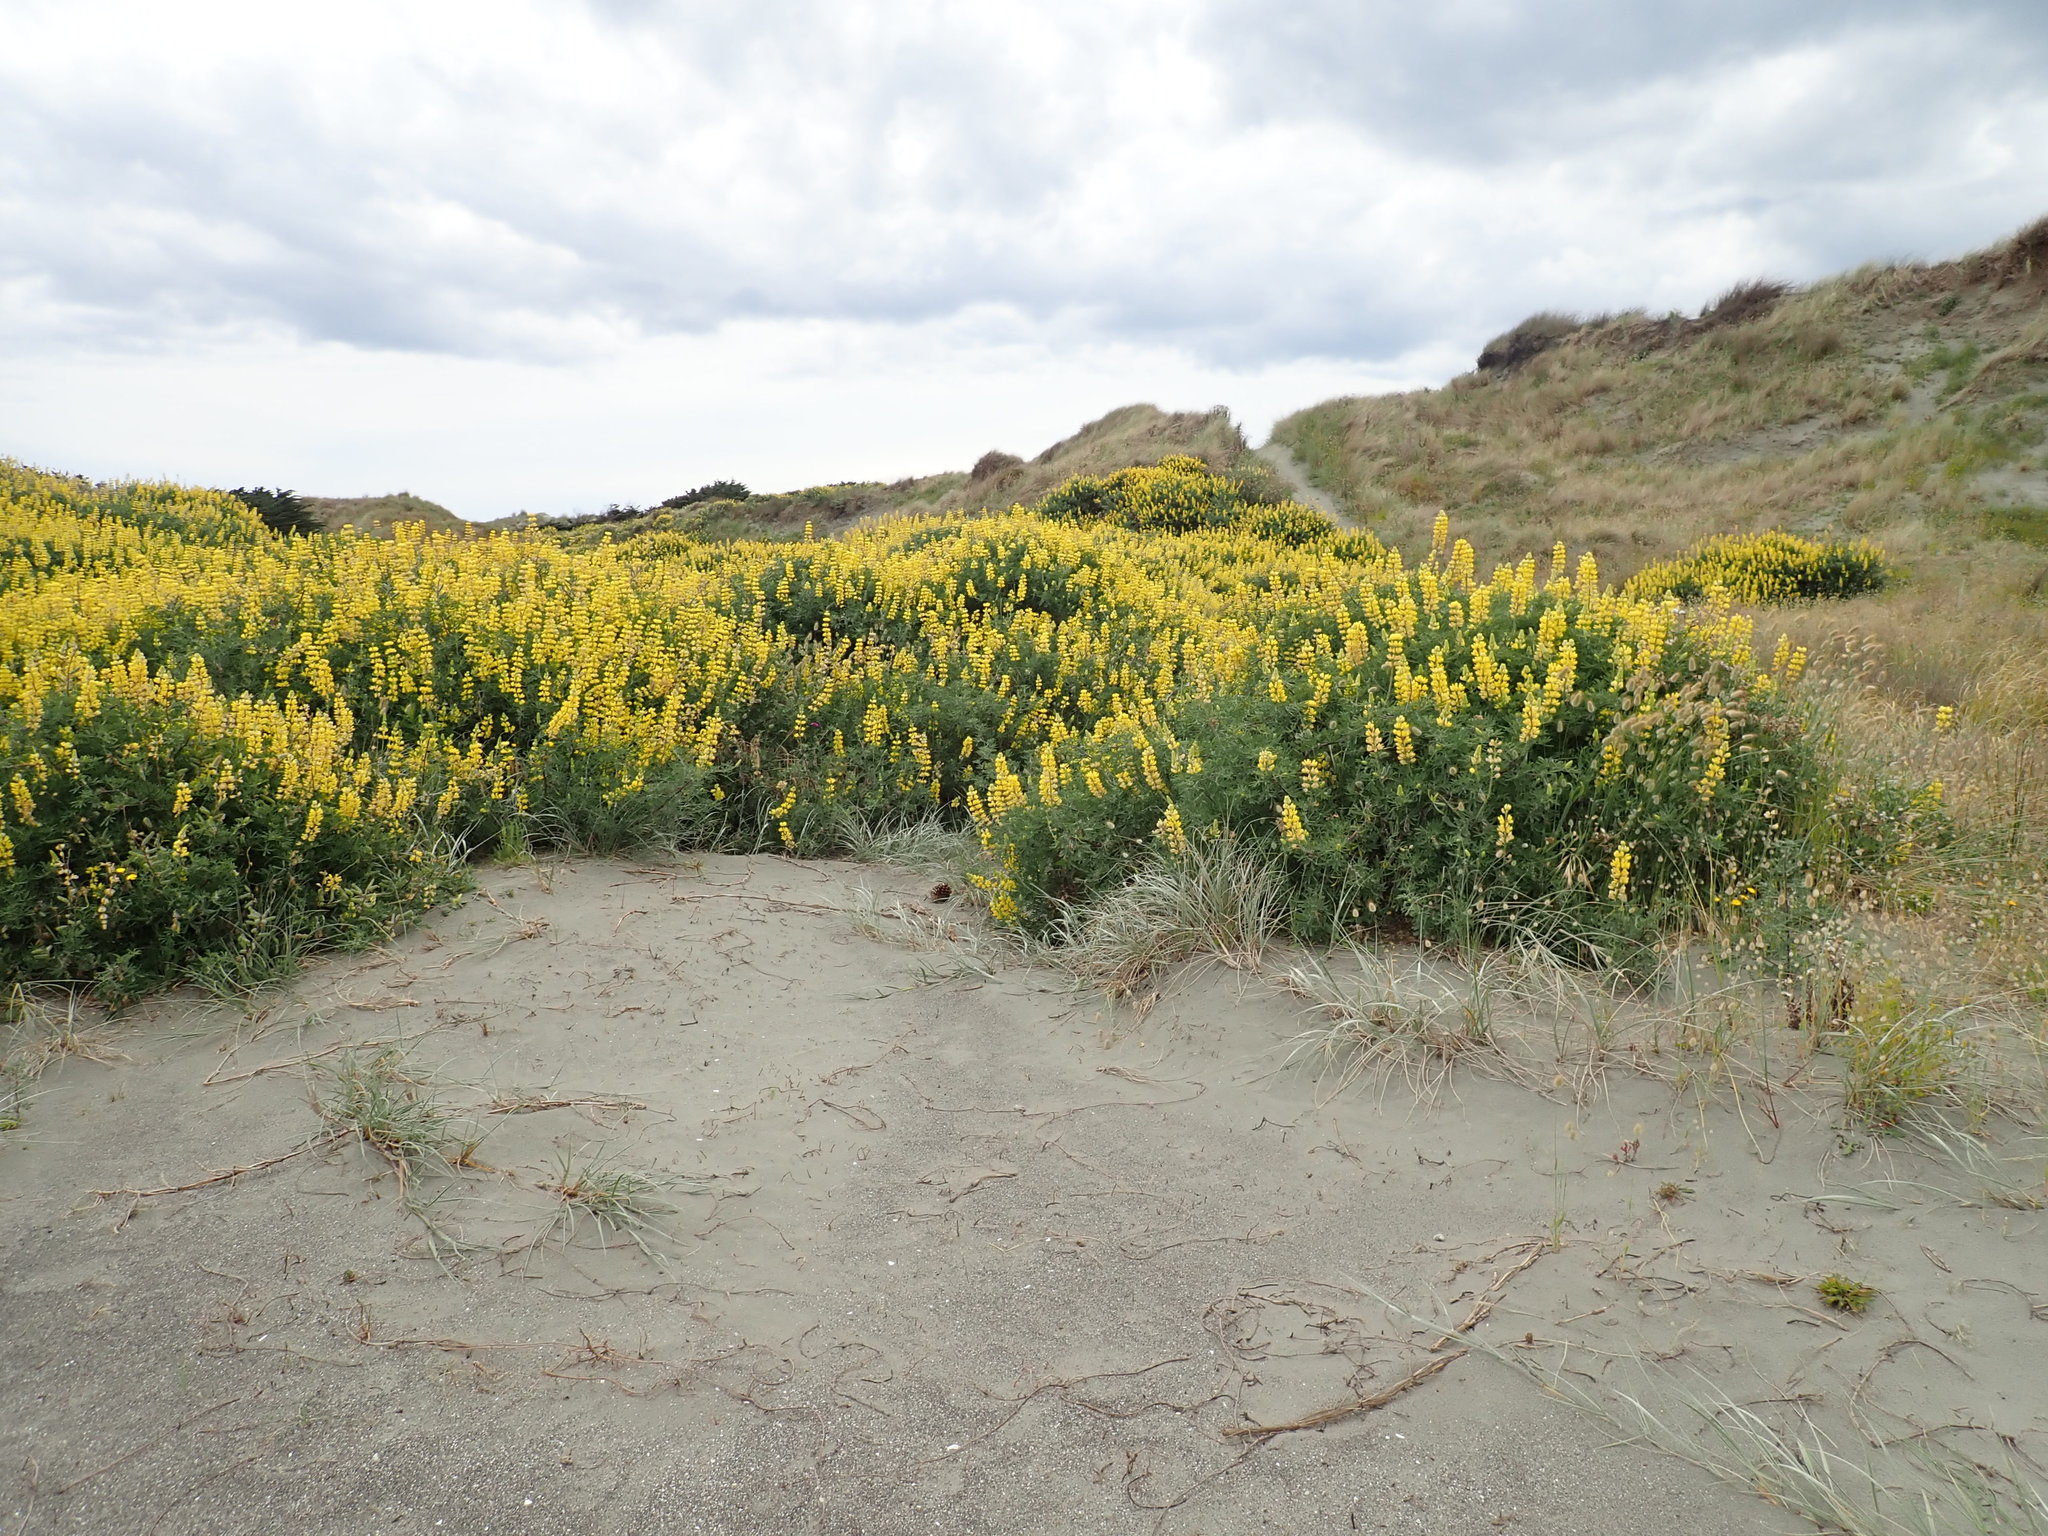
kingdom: Plantae
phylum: Tracheophyta
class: Magnoliopsida
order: Fabales
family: Fabaceae
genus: Lupinus
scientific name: Lupinus arboreus
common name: Yellow bush lupine
